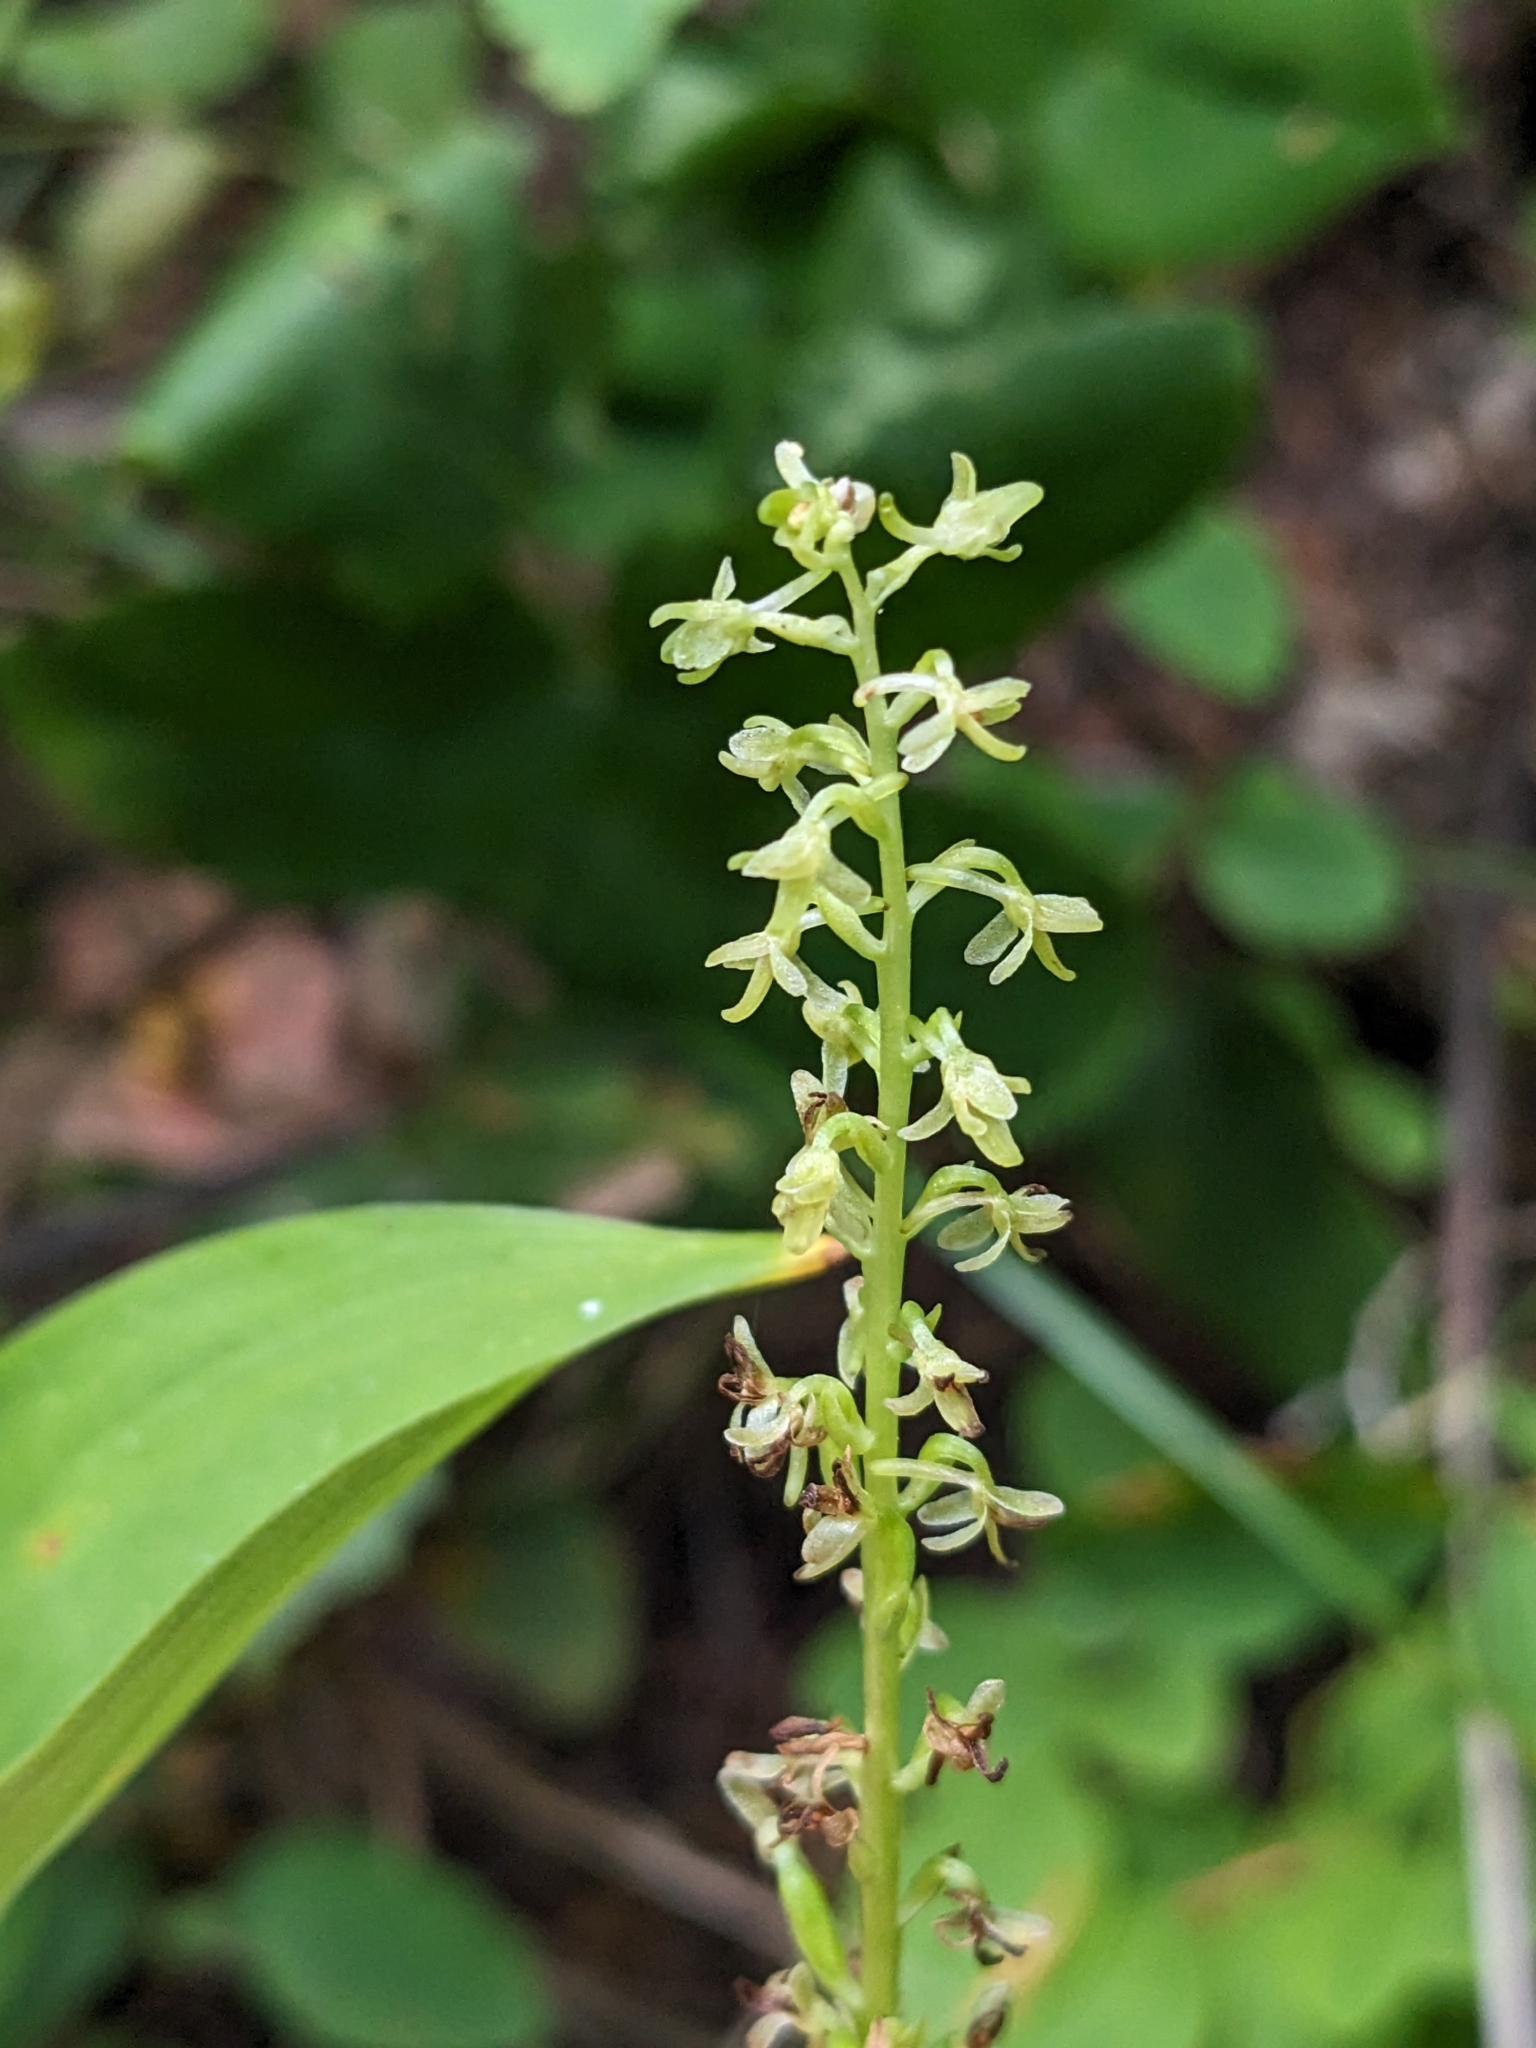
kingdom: Plantae
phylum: Tracheophyta
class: Liliopsida
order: Asparagales
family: Orchidaceae
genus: Platanthera
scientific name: Platanthera unalascensis
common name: Alaska bog orchid
